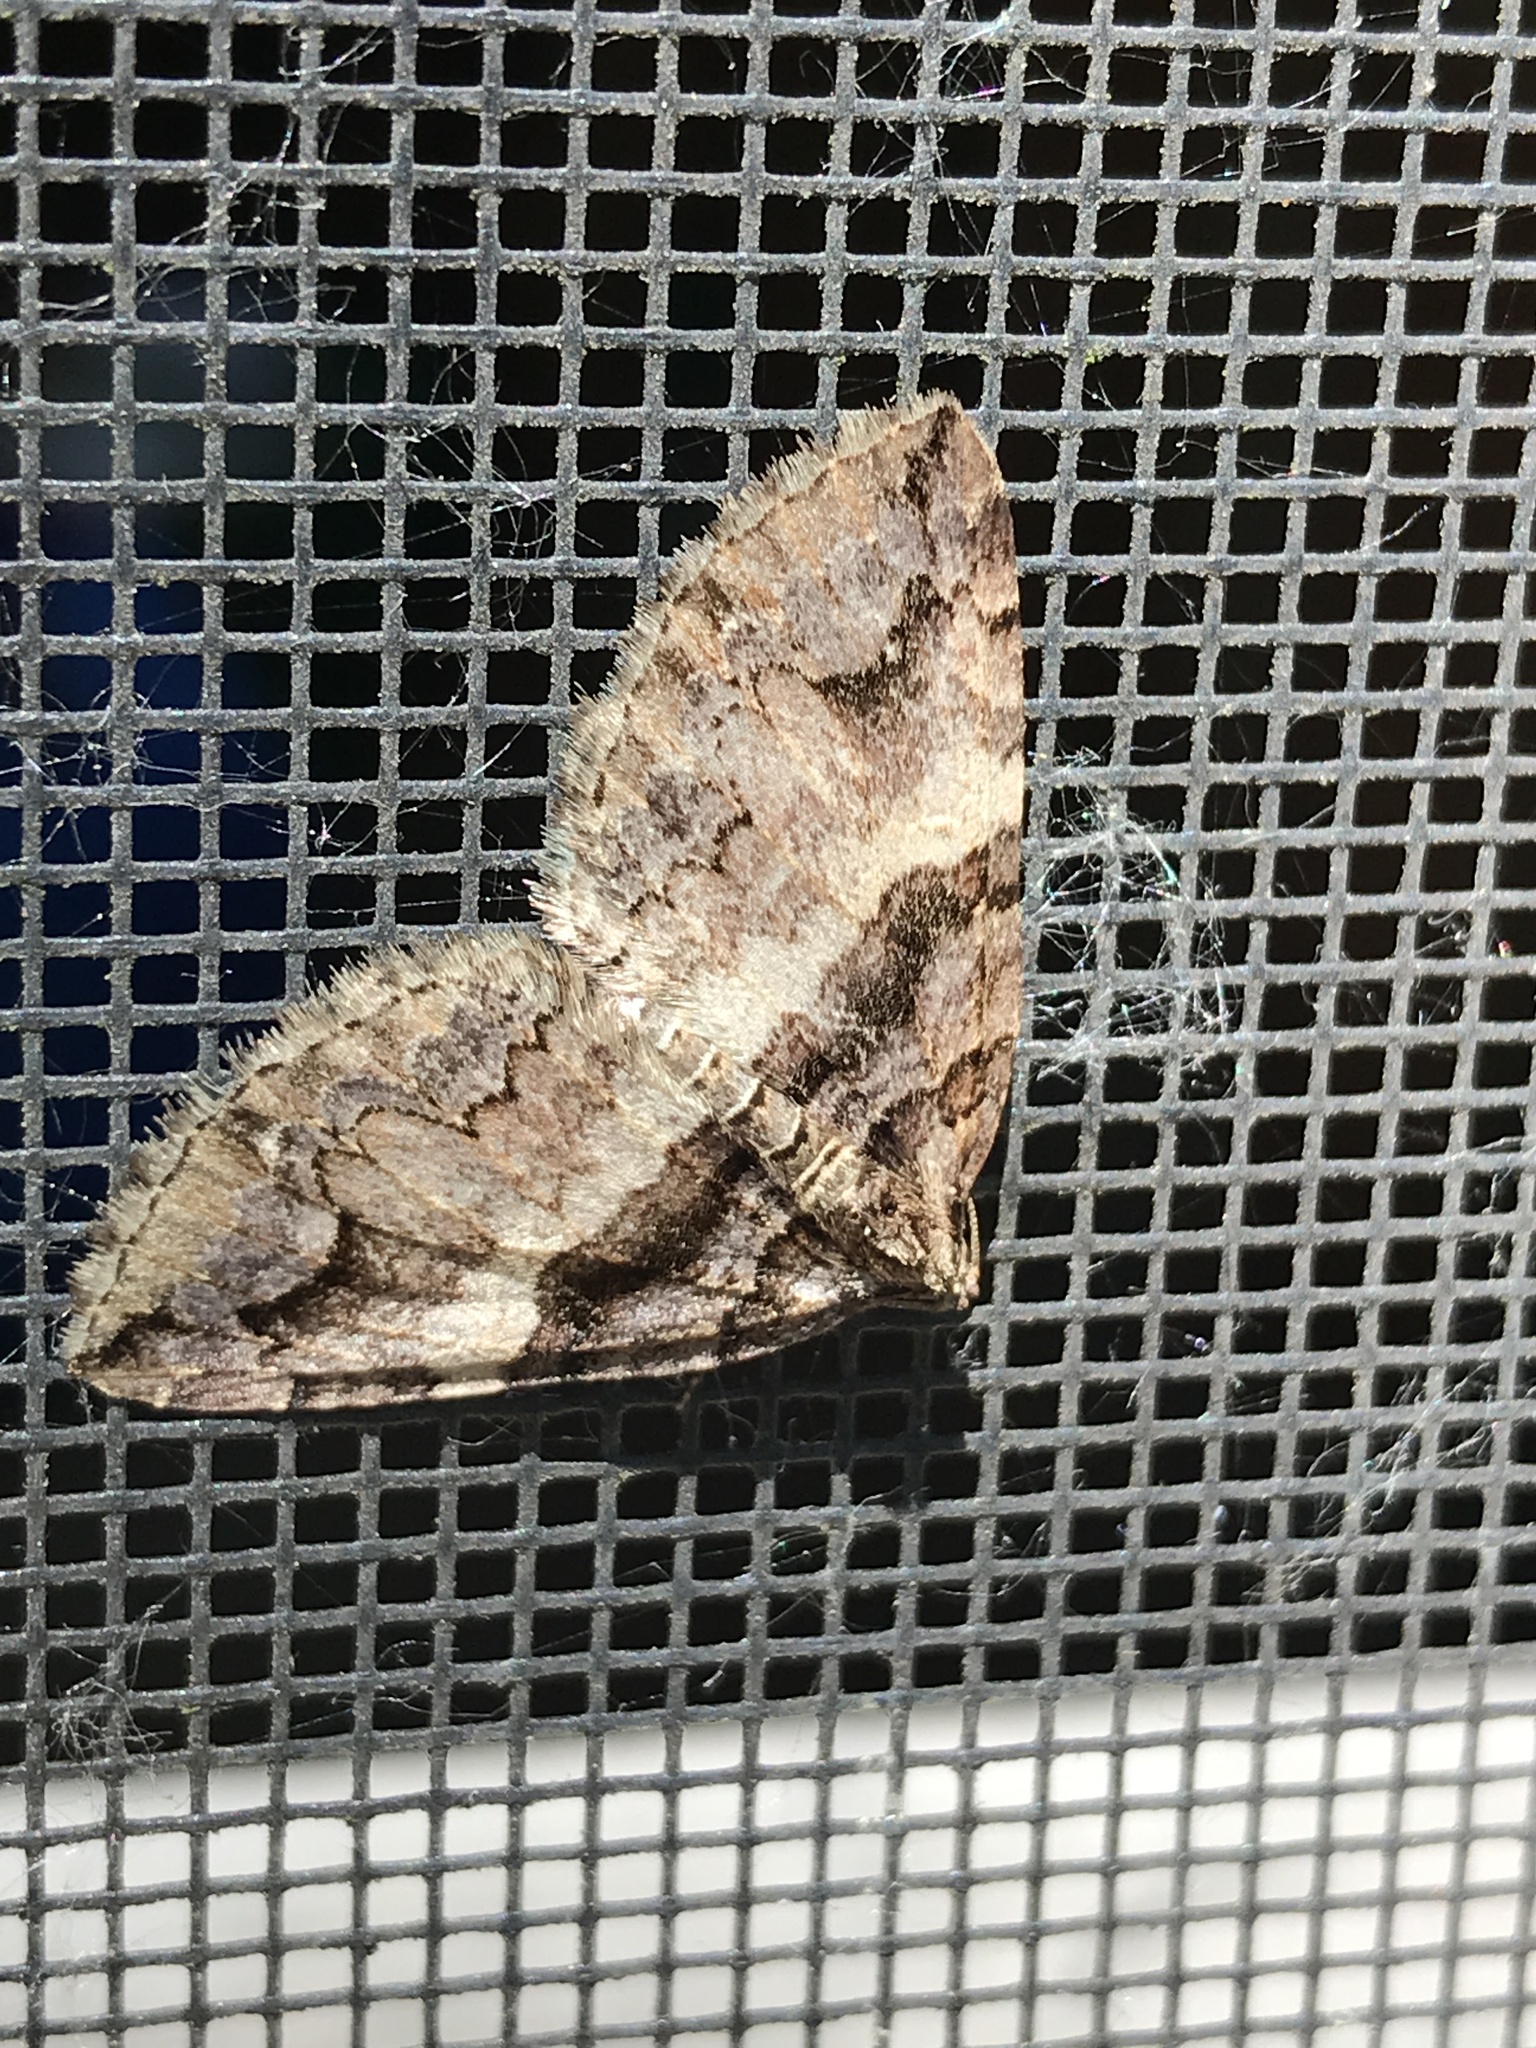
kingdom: Animalia
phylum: Arthropoda
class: Insecta
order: Lepidoptera
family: Geometridae
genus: Anticlea
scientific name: Anticlea vasiliata
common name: Variable carpet
